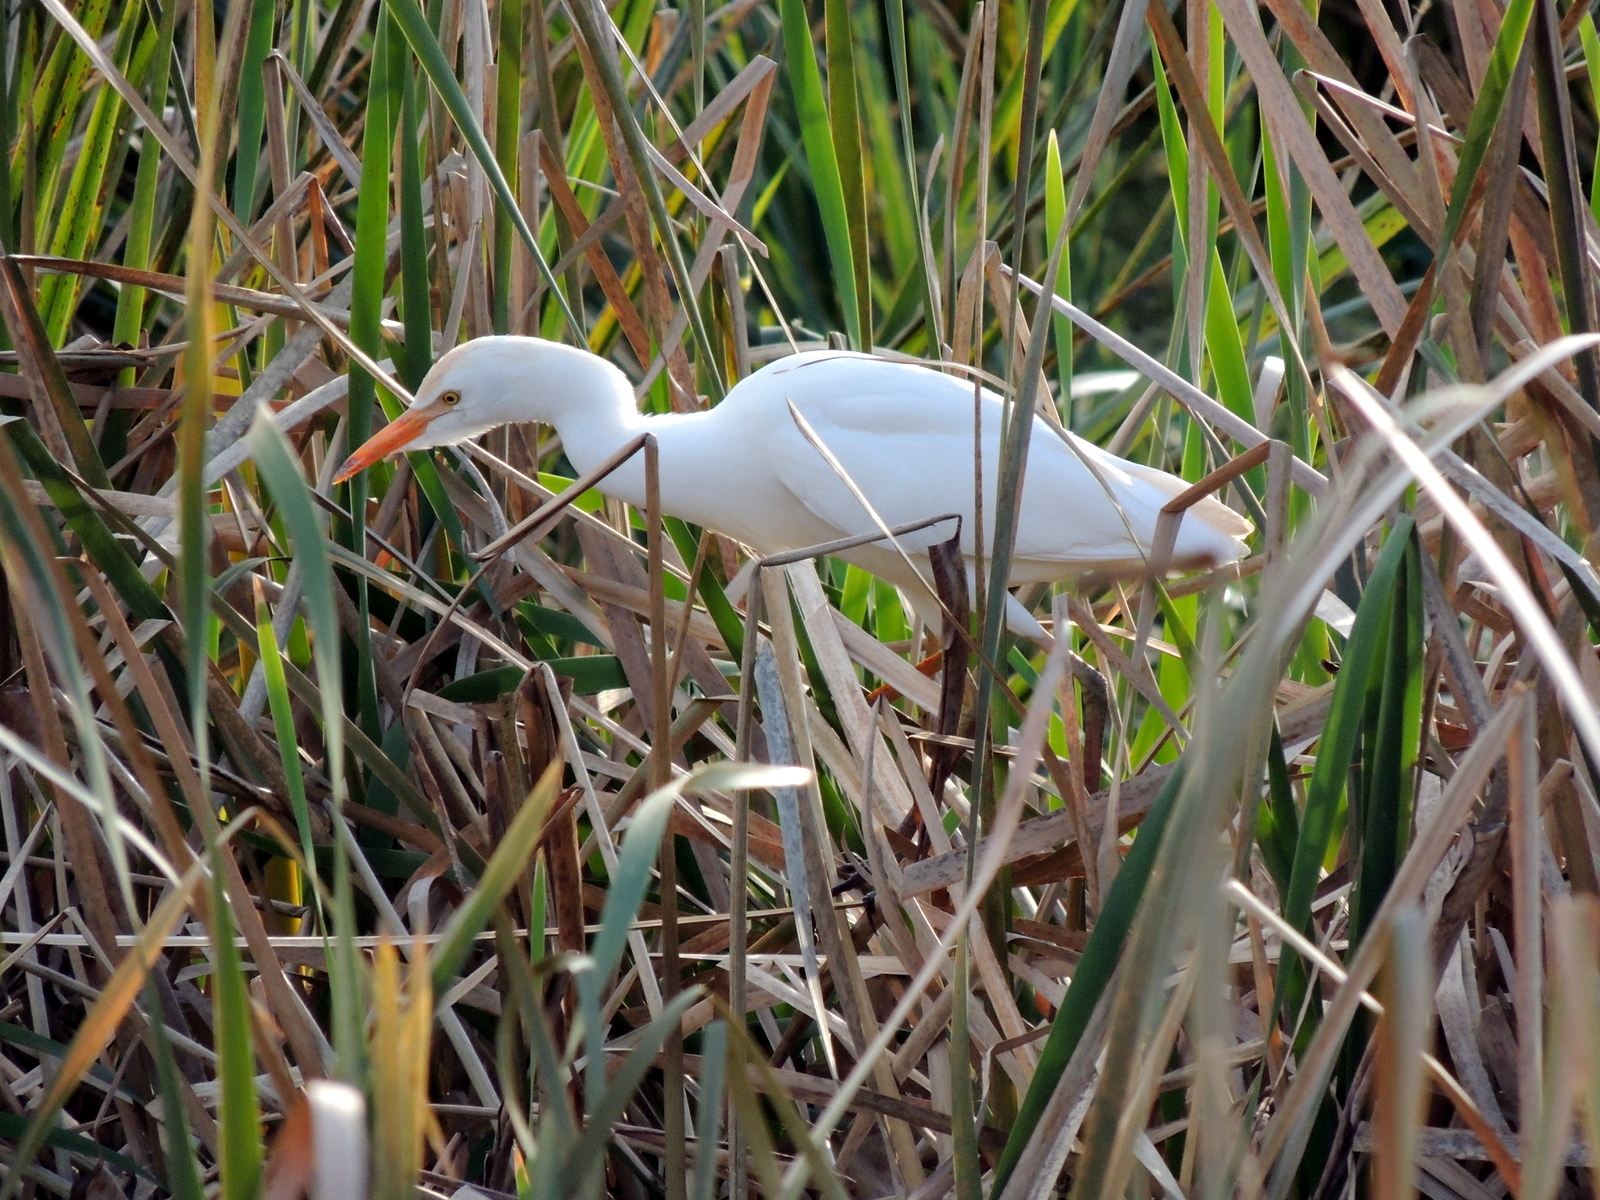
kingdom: Animalia
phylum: Chordata
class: Aves
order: Pelecaniformes
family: Ardeidae
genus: Bubulcus
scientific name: Bubulcus ibis
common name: Cattle egret
